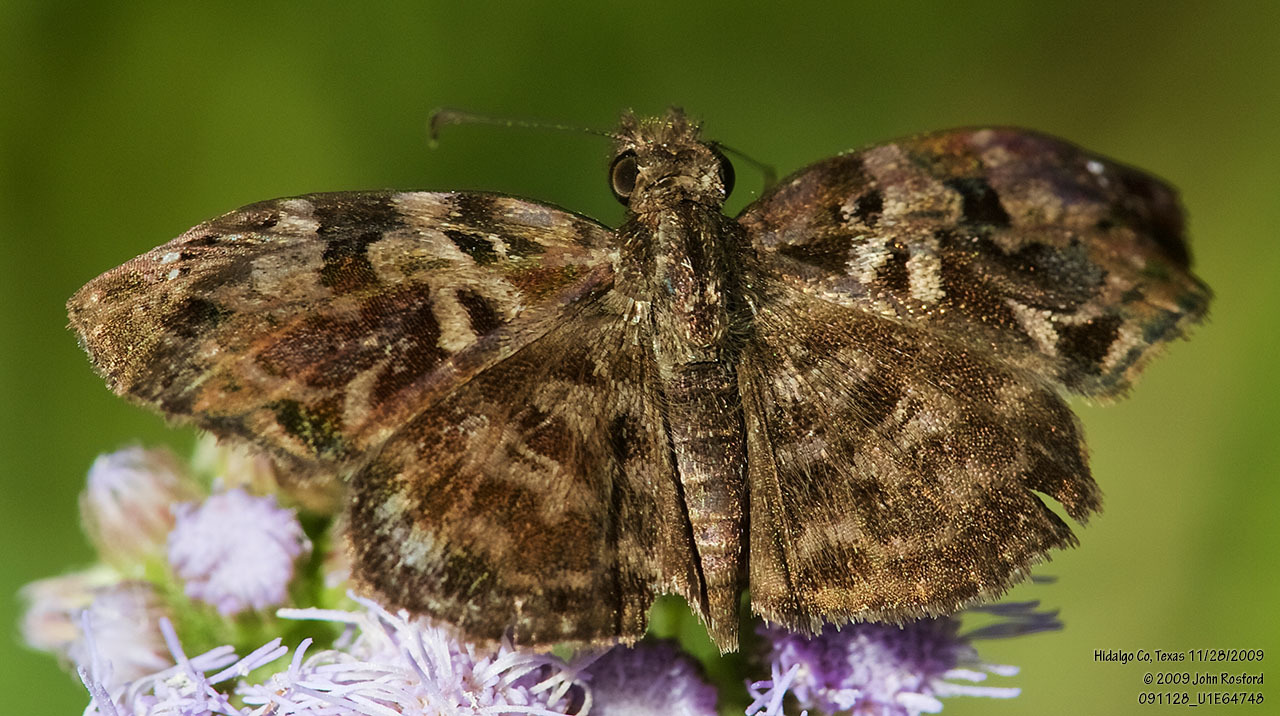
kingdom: Animalia
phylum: Arthropoda
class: Insecta
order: Lepidoptera
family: Hesperiidae
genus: Gorgythion
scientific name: Gorgythion begga
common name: Variegated skipper
